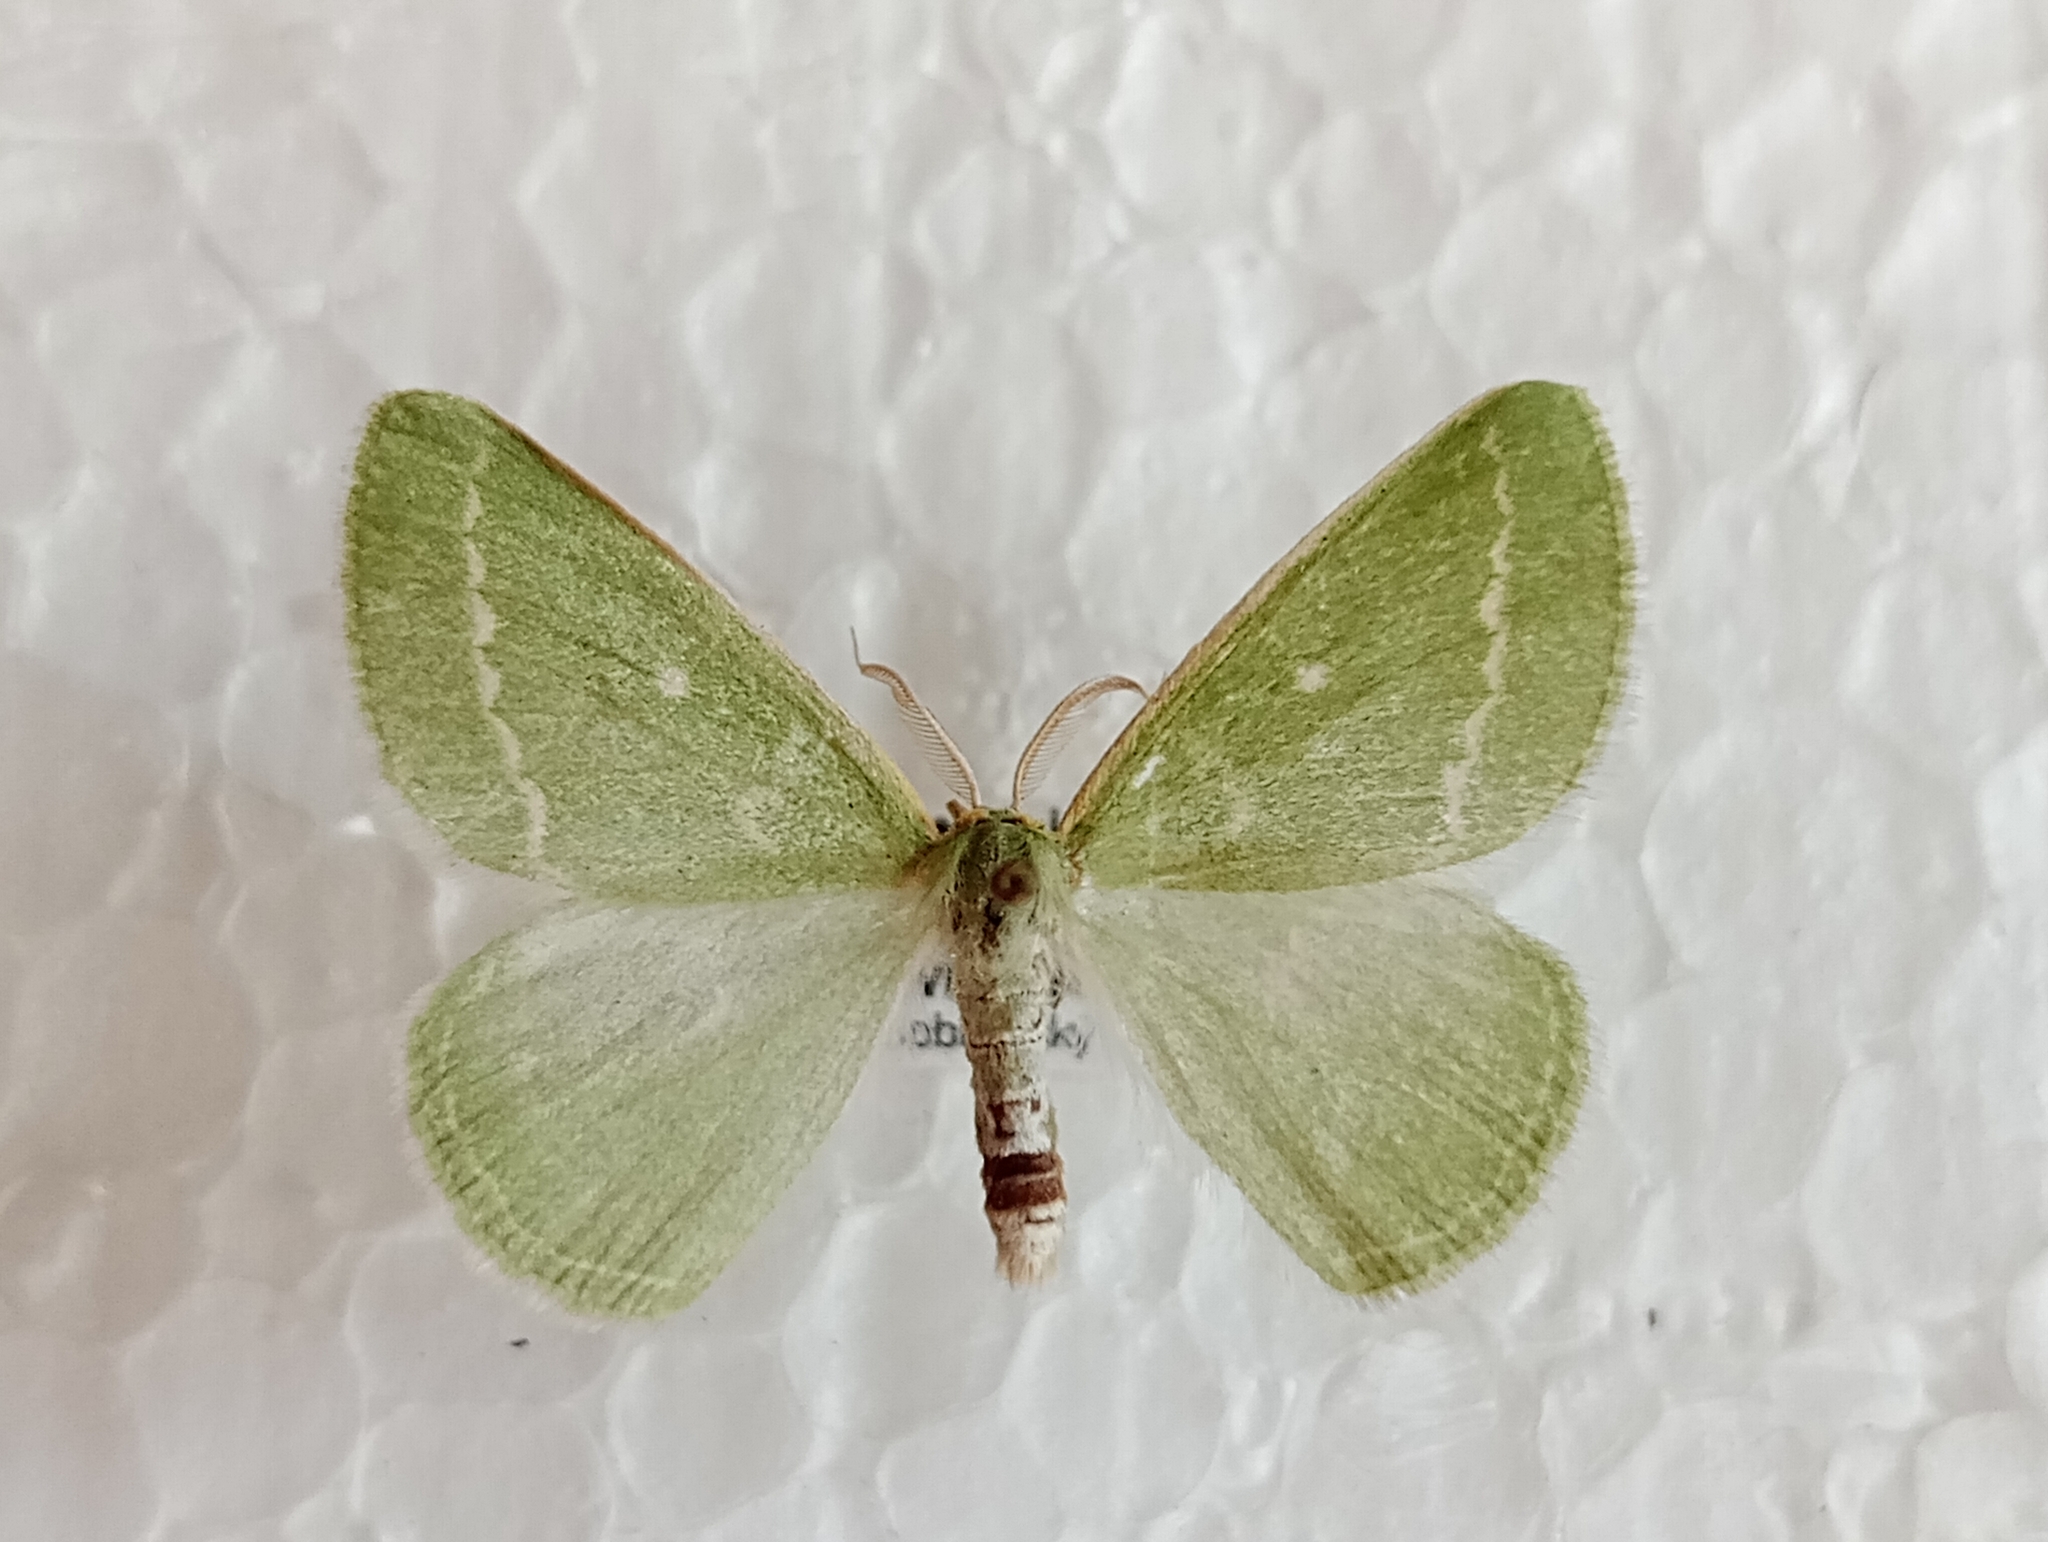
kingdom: Animalia
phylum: Arthropoda
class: Insecta
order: Lepidoptera
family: Geometridae
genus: Thetidia
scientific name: Thetidia smaragdaria
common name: Essex emerald
